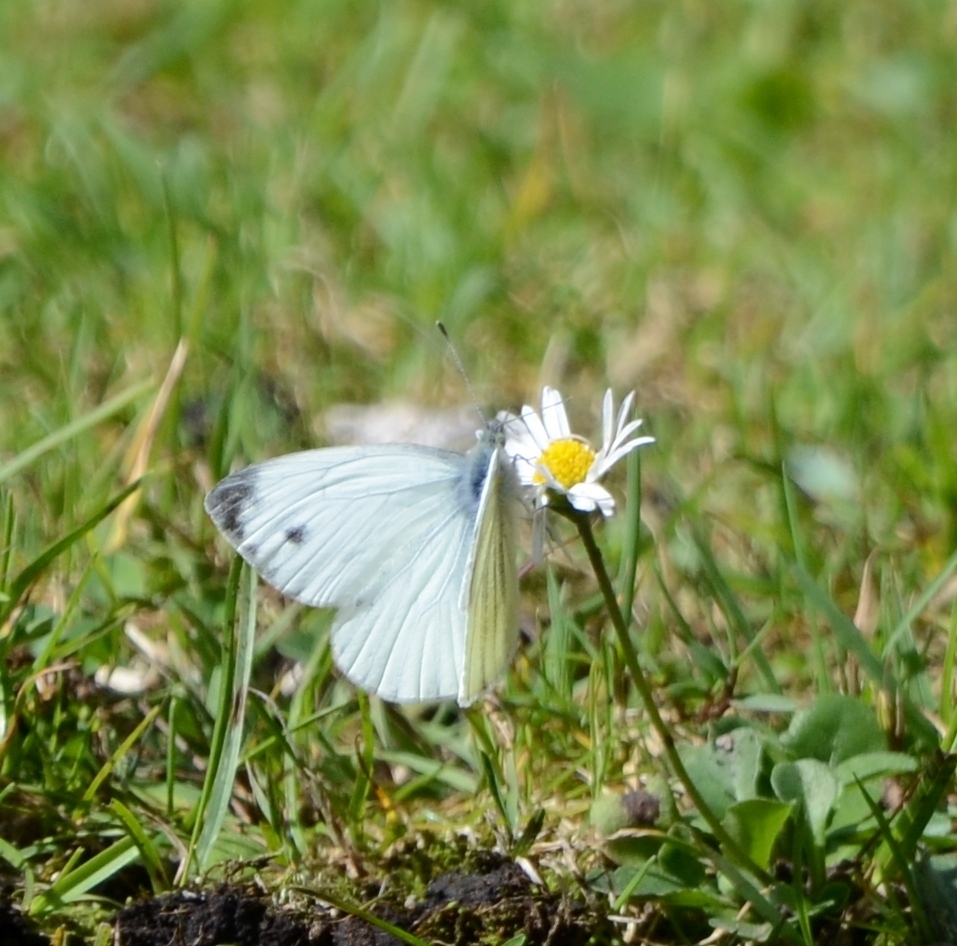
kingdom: Animalia
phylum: Arthropoda
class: Insecta
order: Lepidoptera
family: Pieridae
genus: Pieris
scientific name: Pieris napi
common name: Green-veined white
